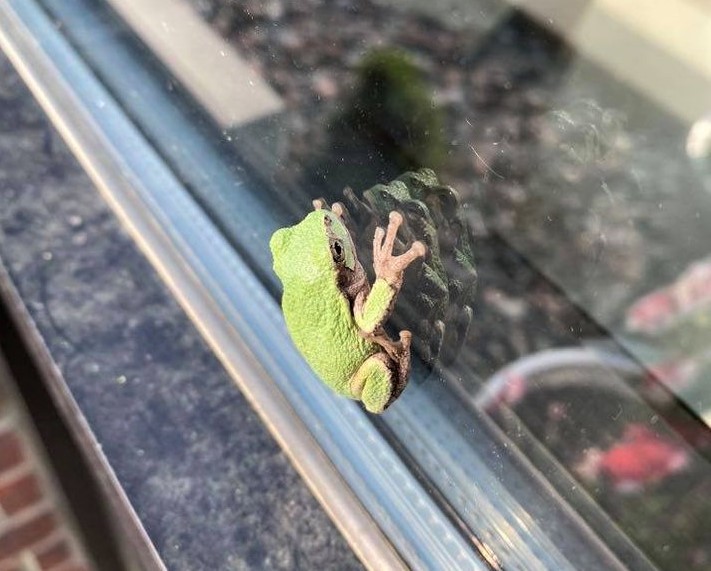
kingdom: Animalia
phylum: Chordata
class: Amphibia
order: Anura
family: Hylidae
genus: Hyla
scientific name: Hyla
